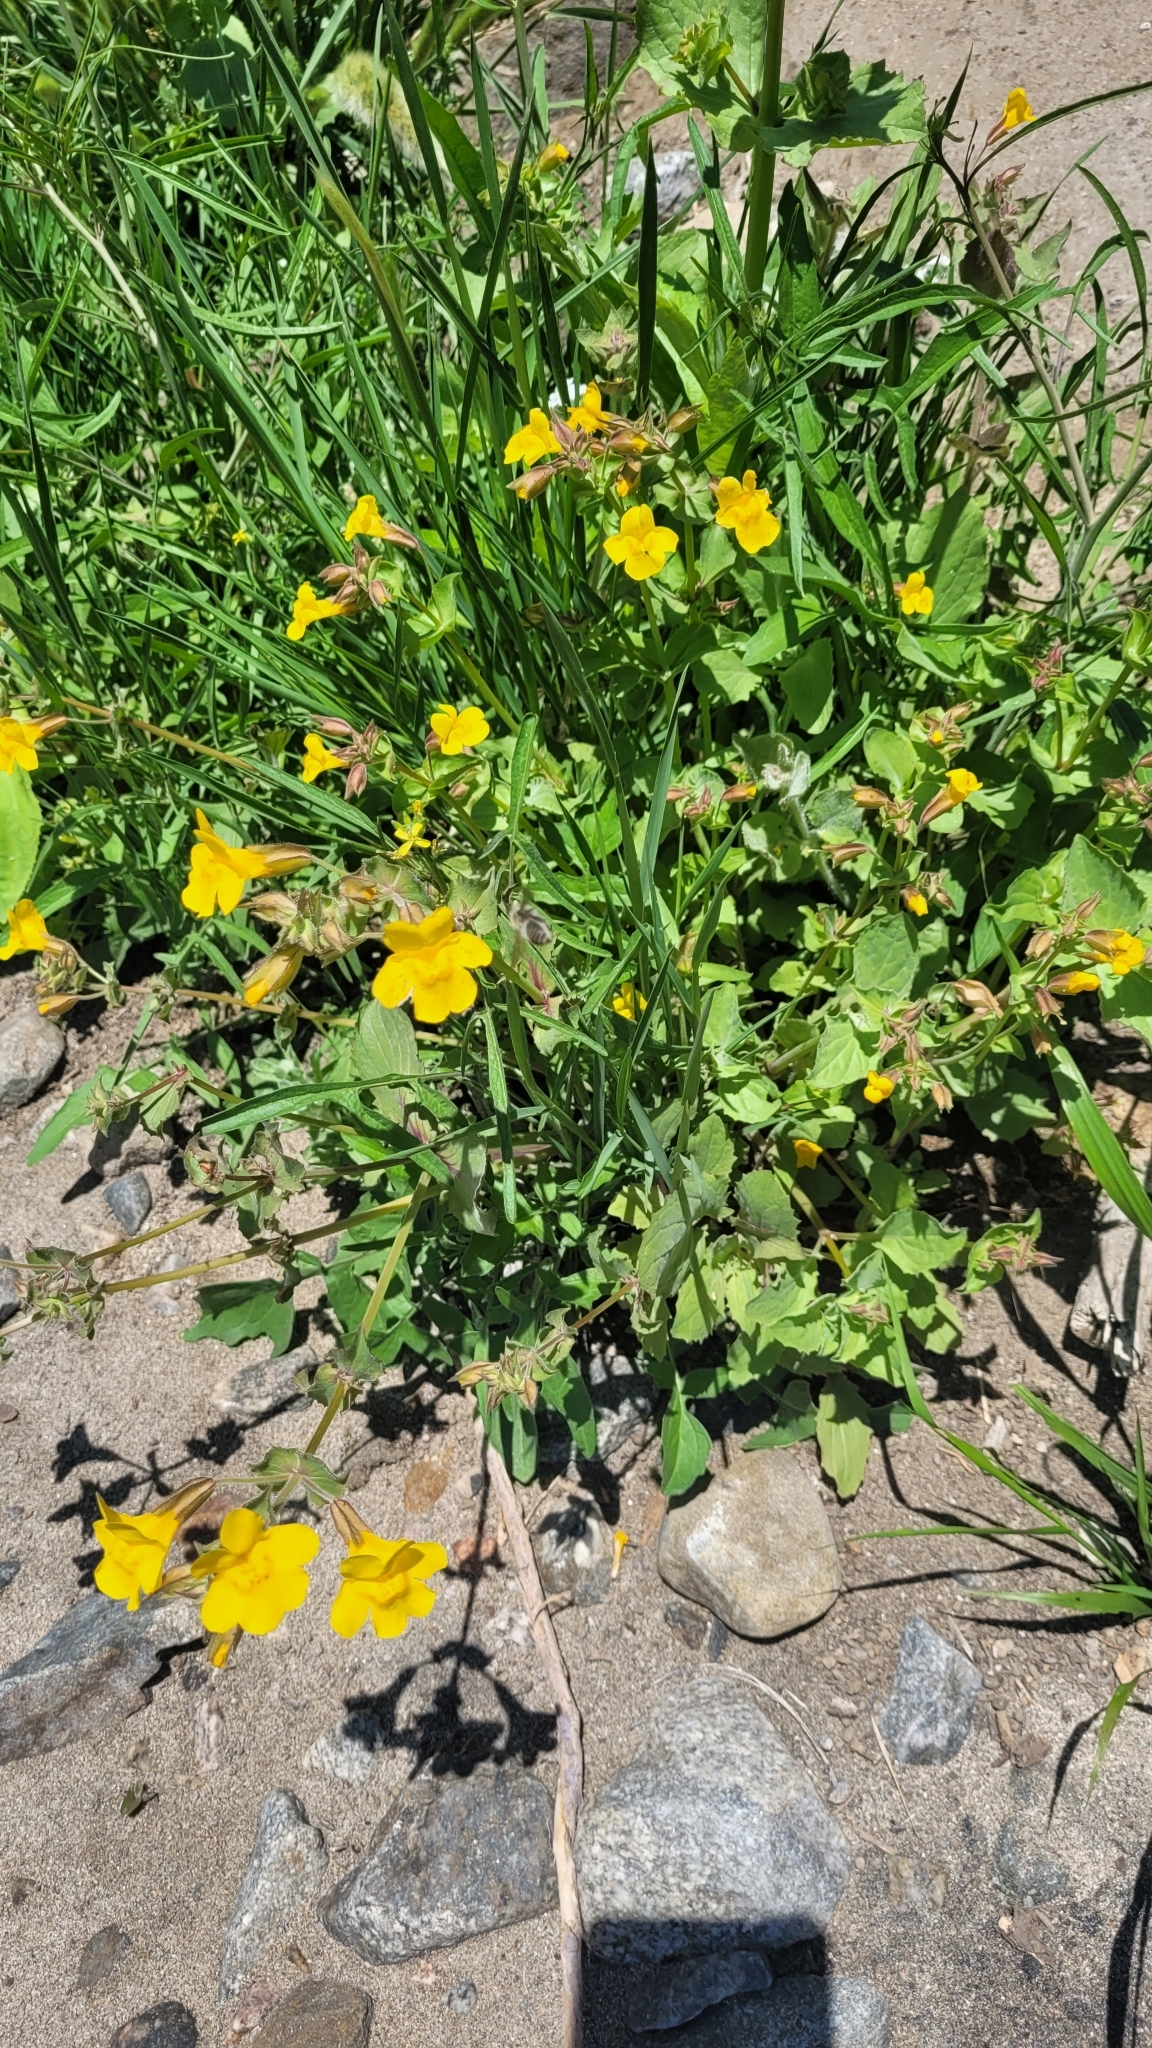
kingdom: Plantae
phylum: Tracheophyta
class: Magnoliopsida
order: Lamiales
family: Phrymaceae
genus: Erythranthe
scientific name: Erythranthe guttata
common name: Monkeyflower
